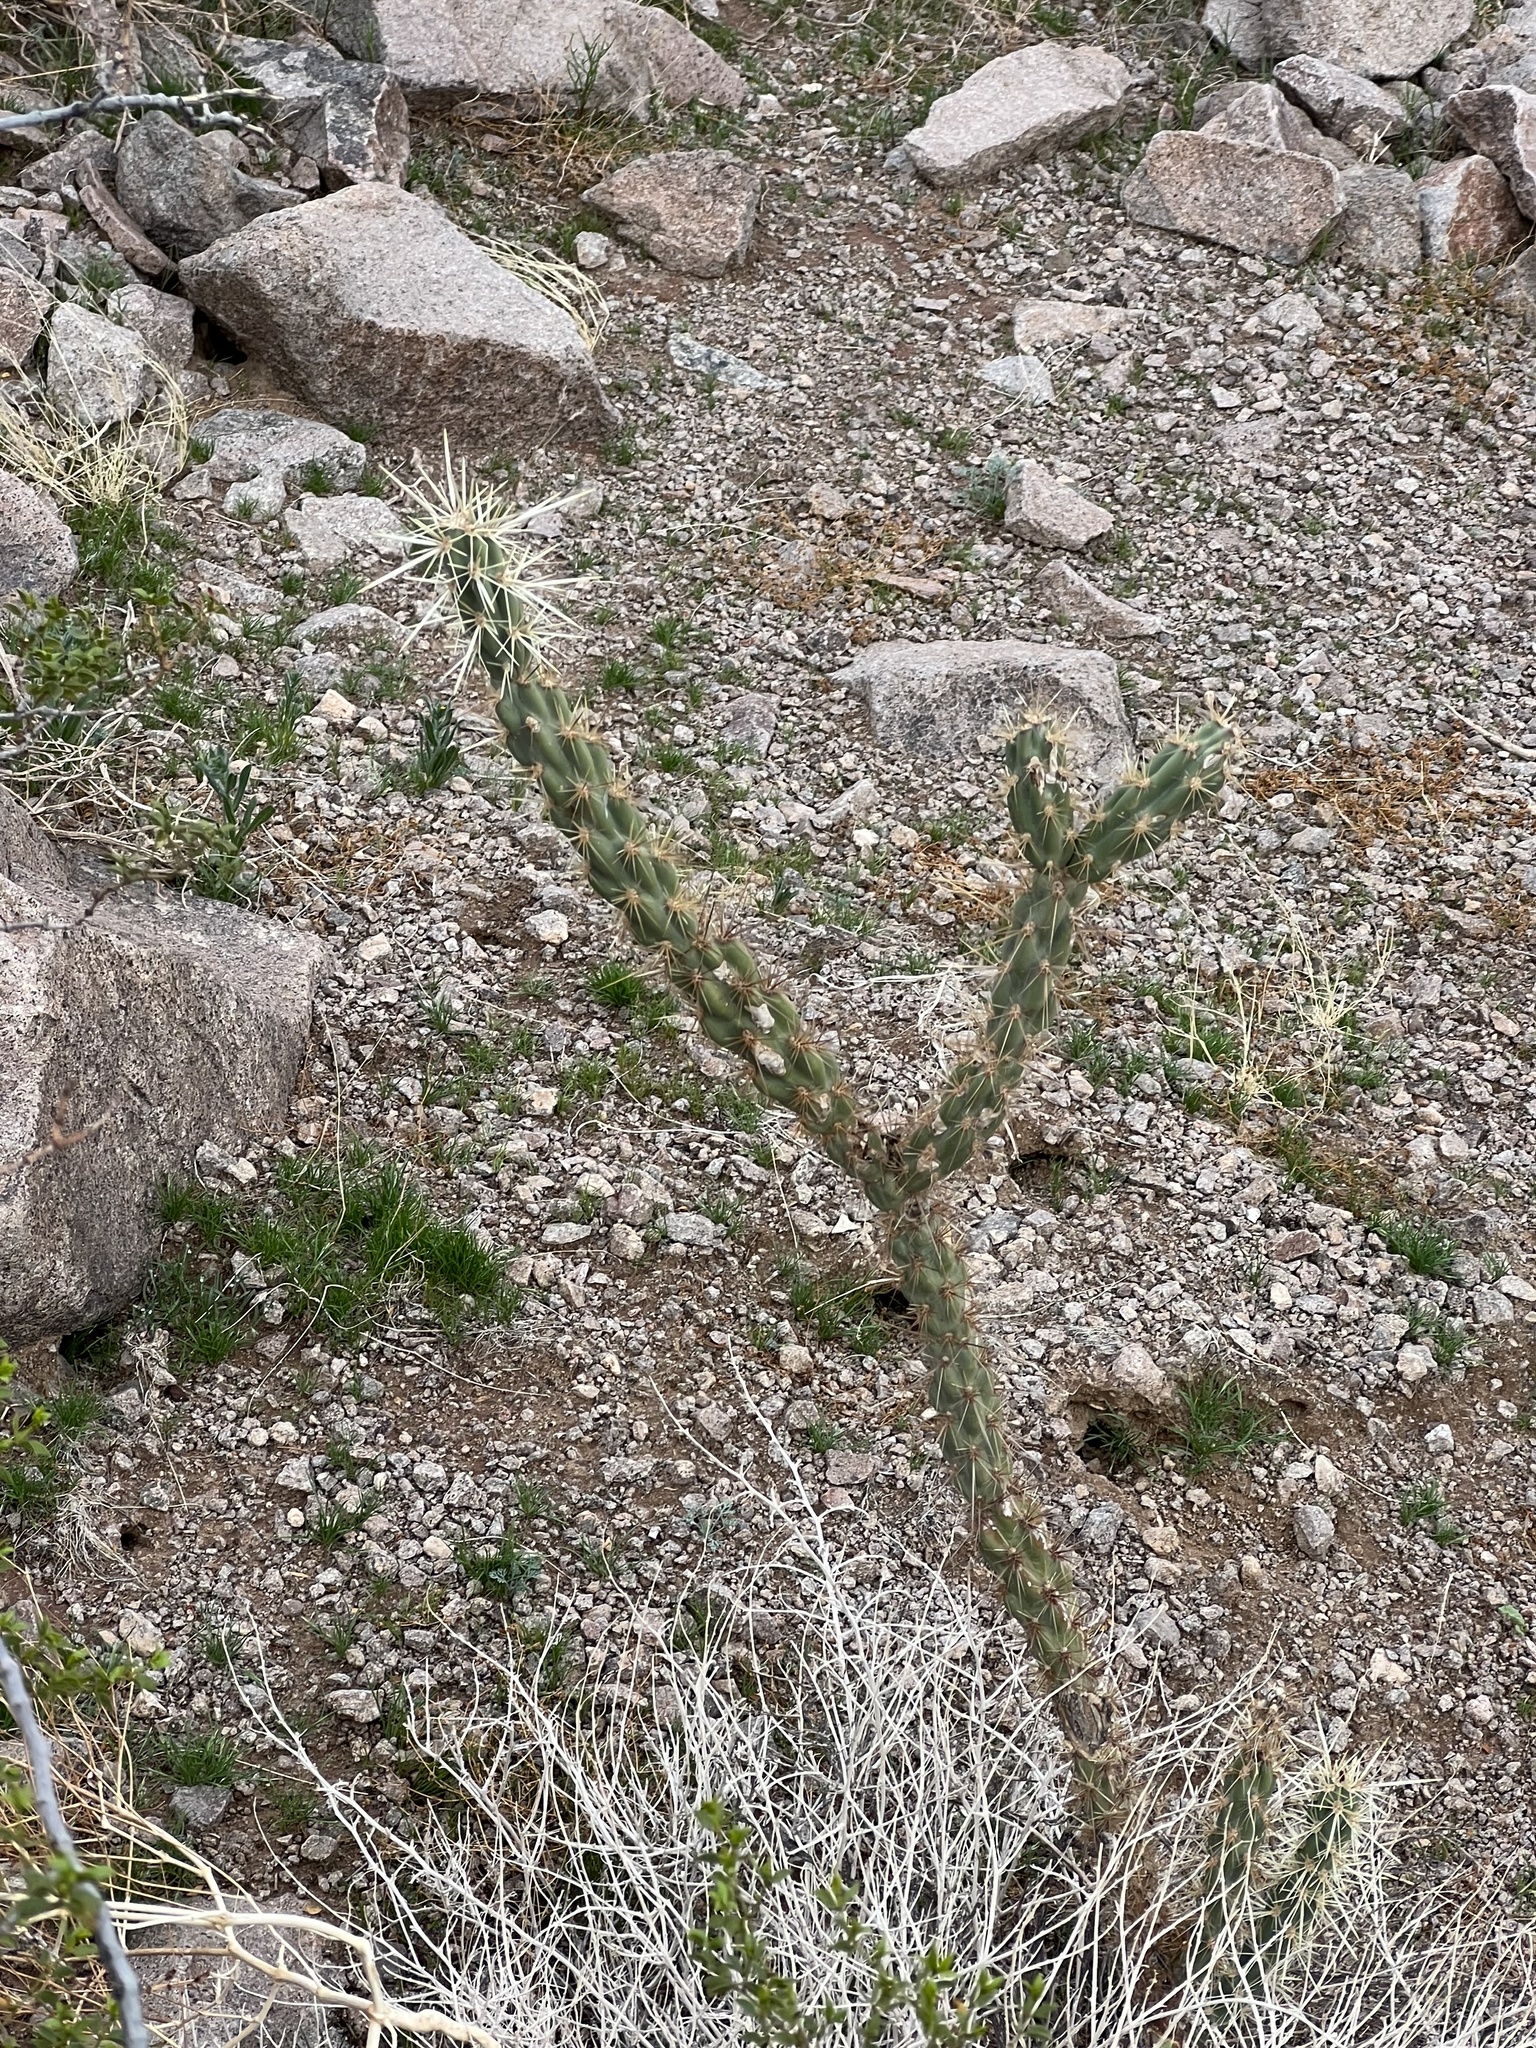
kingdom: Plantae
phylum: Tracheophyta
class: Magnoliopsida
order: Caryophyllales
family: Cactaceae
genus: Cylindropuntia
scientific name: Cylindropuntia acanthocarpa
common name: Buckhorn cholla
